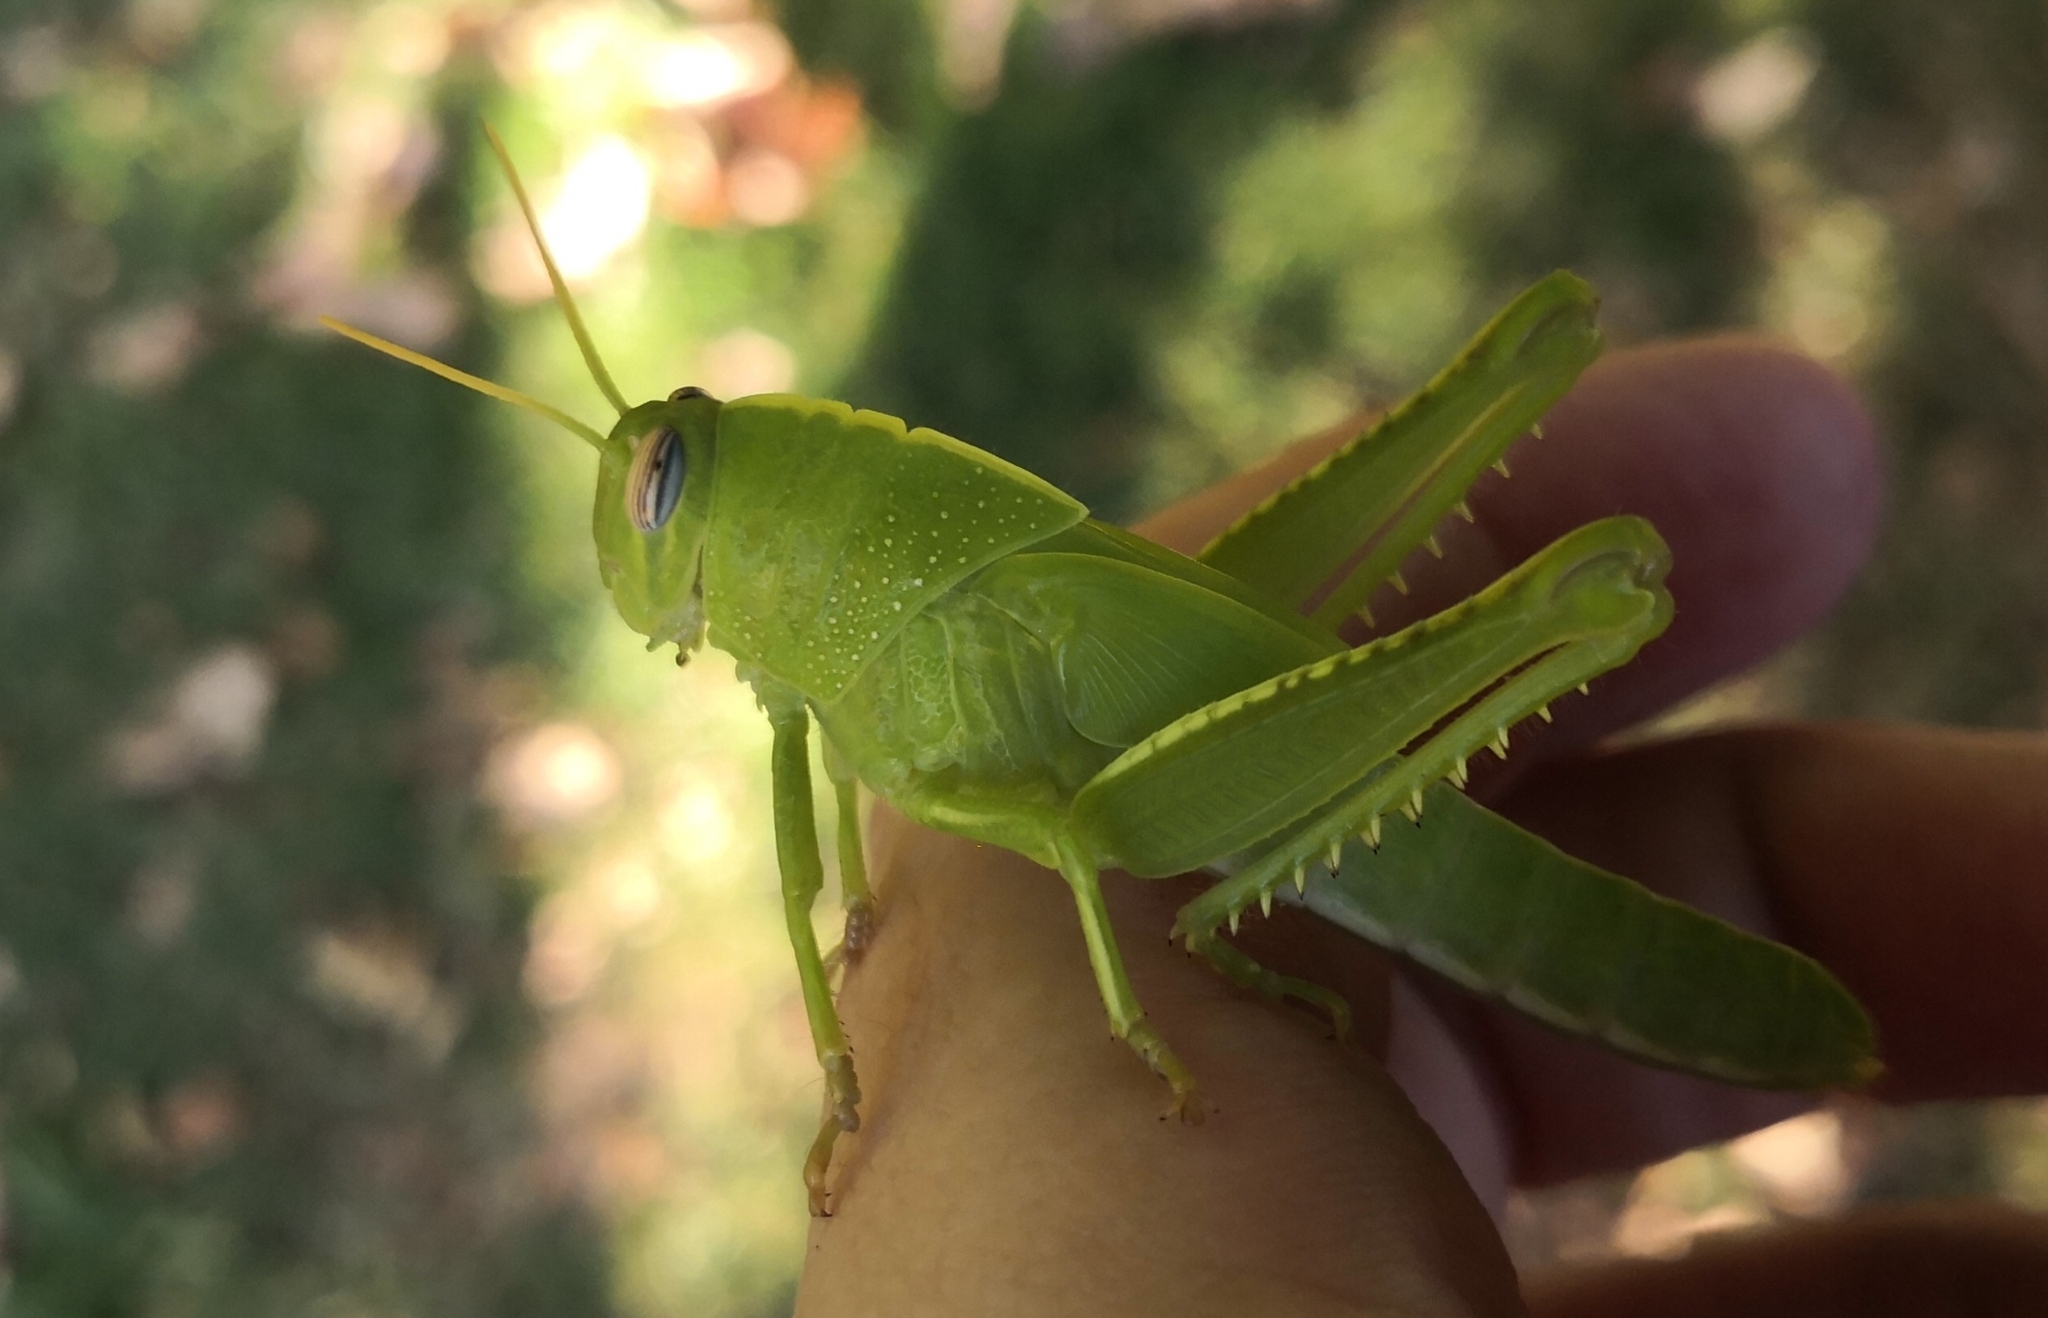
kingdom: Animalia
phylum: Arthropoda
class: Insecta
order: Orthoptera
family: Acrididae
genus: Anacridium
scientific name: Anacridium aegyptium
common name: Egyptian grasshopper
